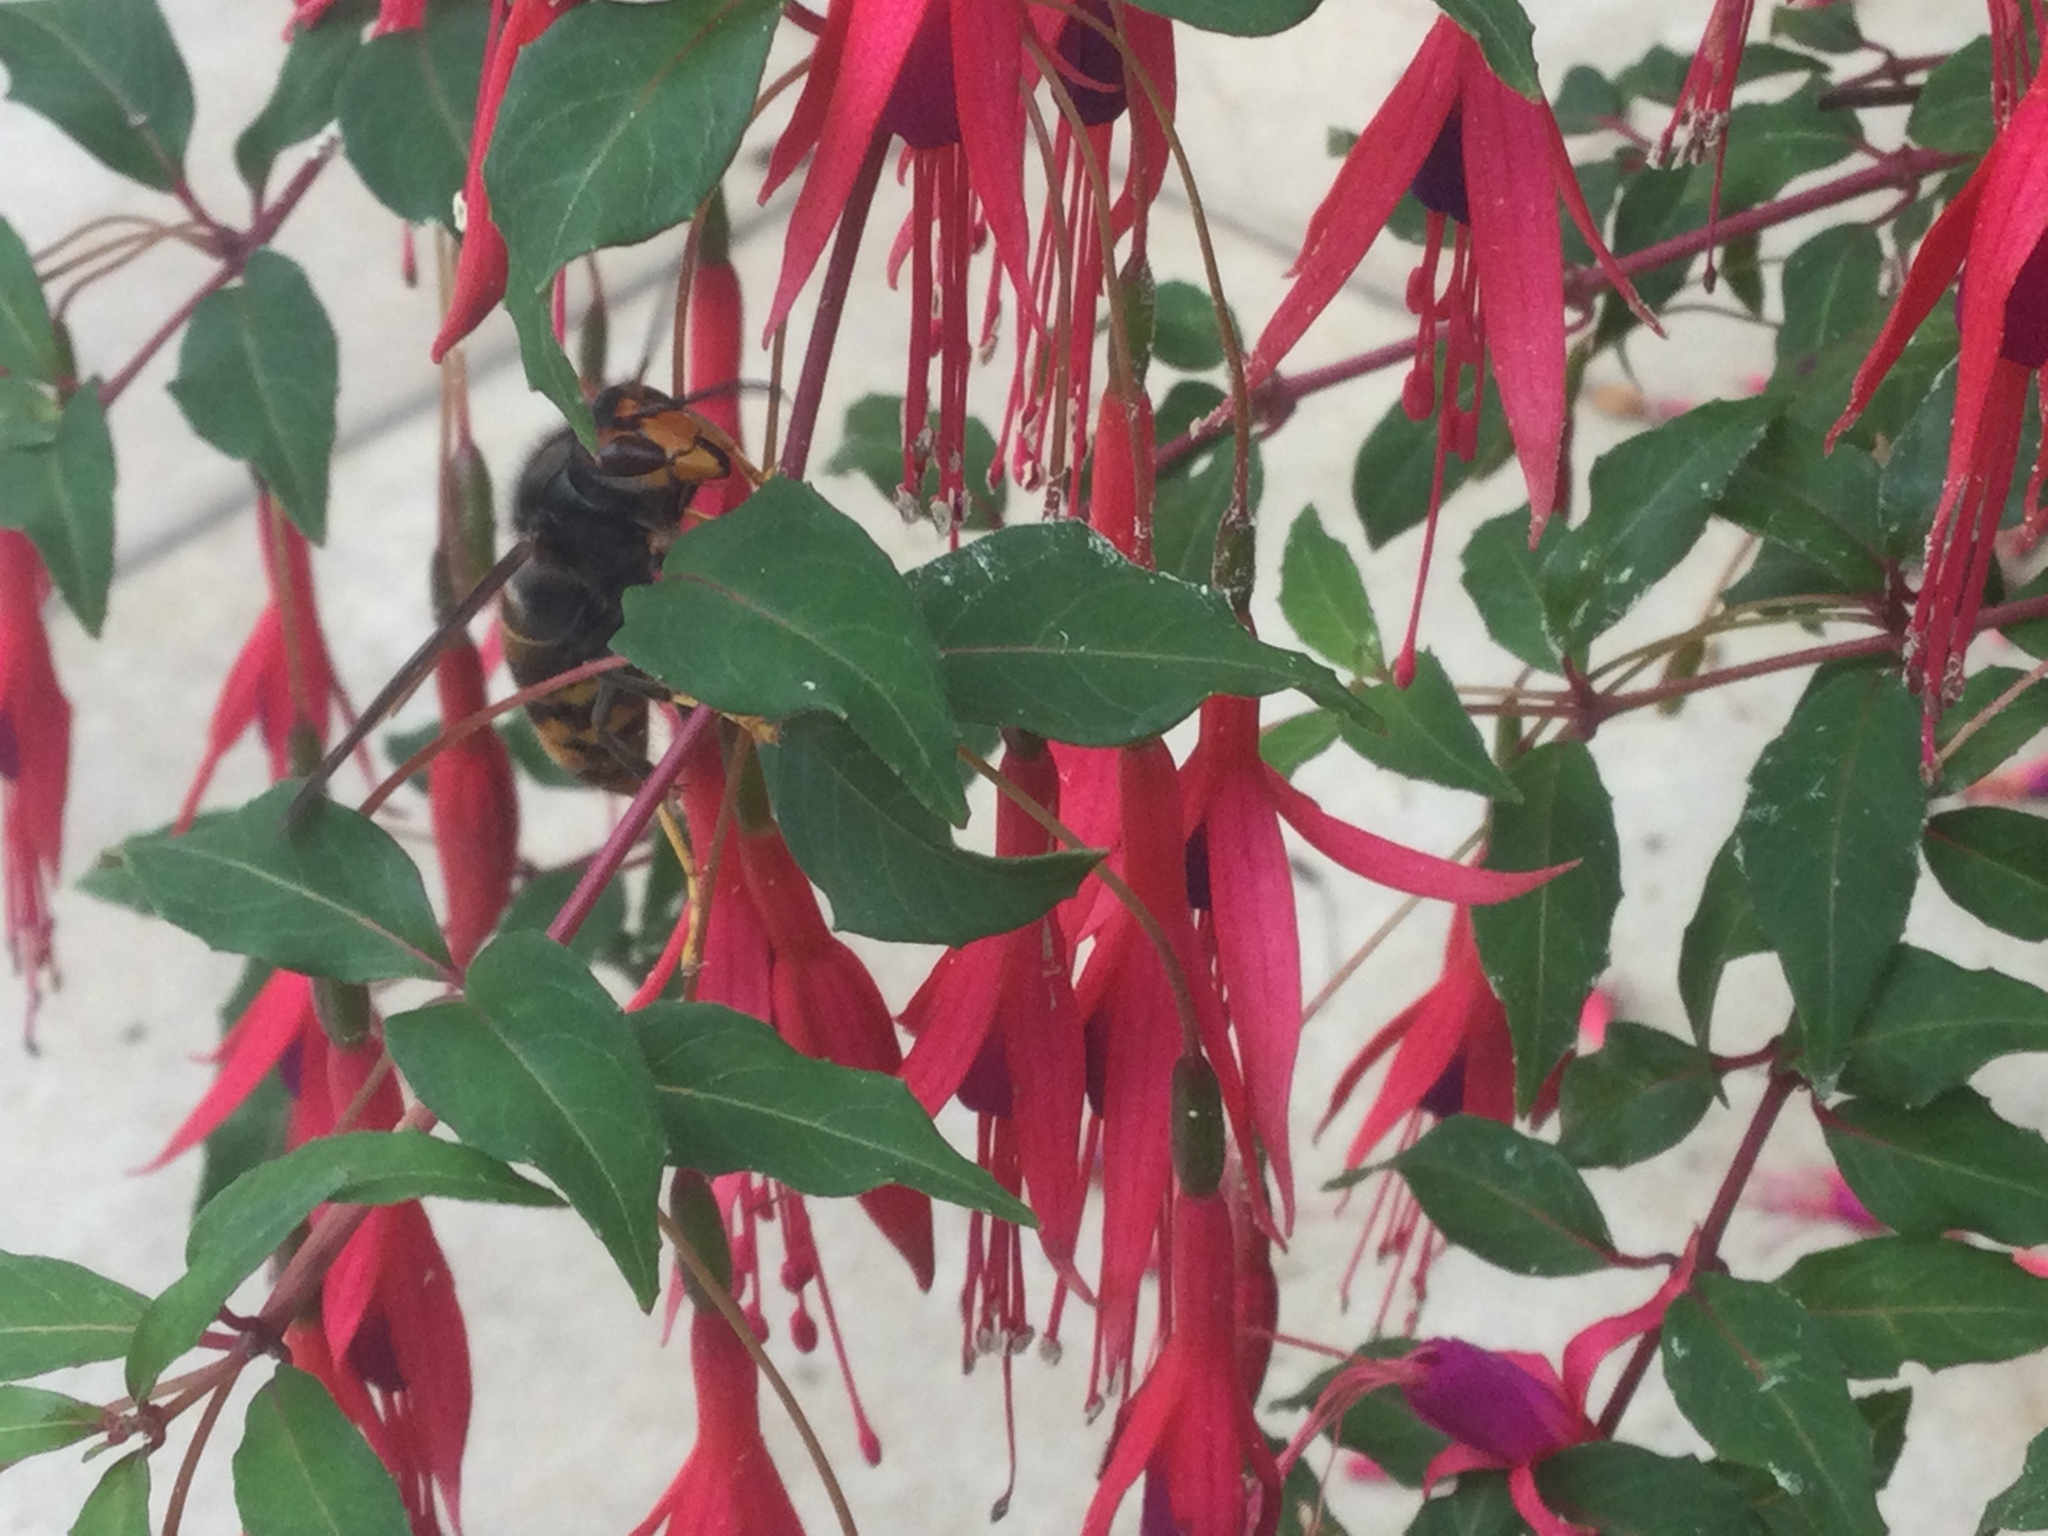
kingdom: Animalia
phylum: Arthropoda
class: Insecta
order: Hymenoptera
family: Vespidae
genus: Vespa
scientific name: Vespa velutina
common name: Asian hornet
